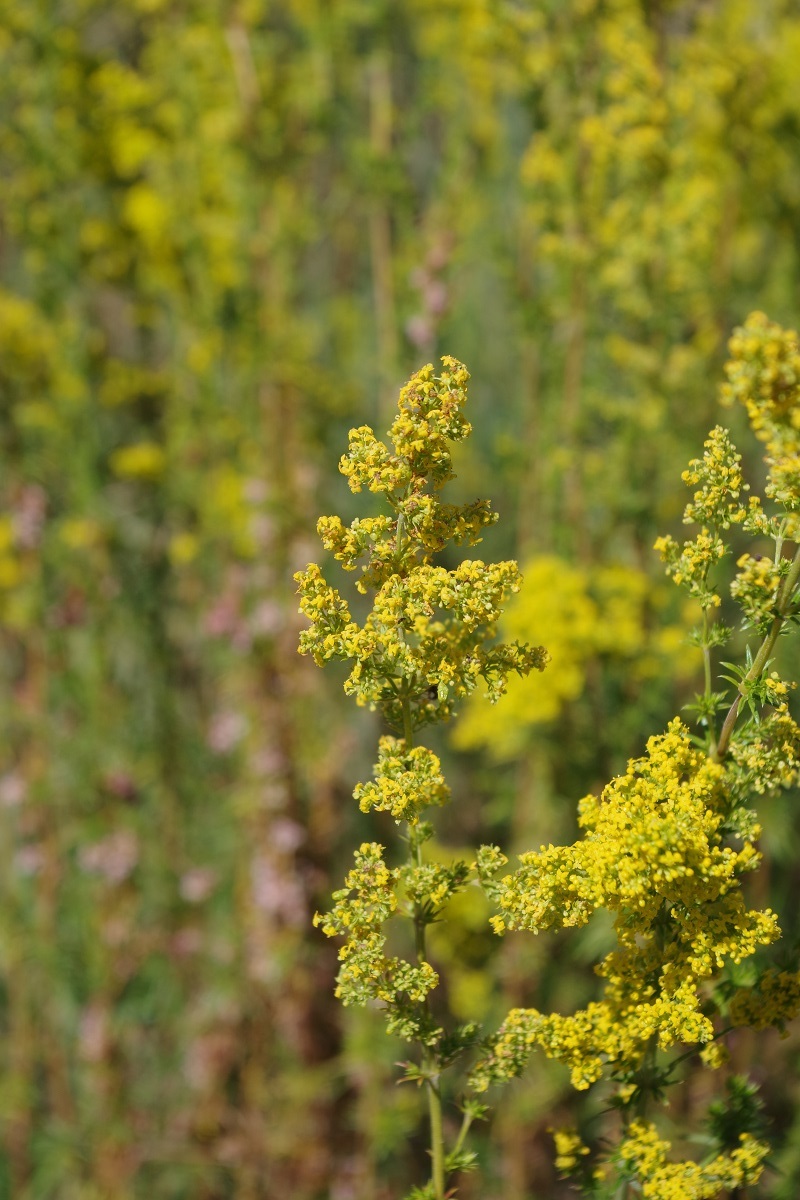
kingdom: Plantae
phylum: Tracheophyta
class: Magnoliopsida
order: Gentianales
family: Rubiaceae
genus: Galium
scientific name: Galium verum
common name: Lady's bedstraw
